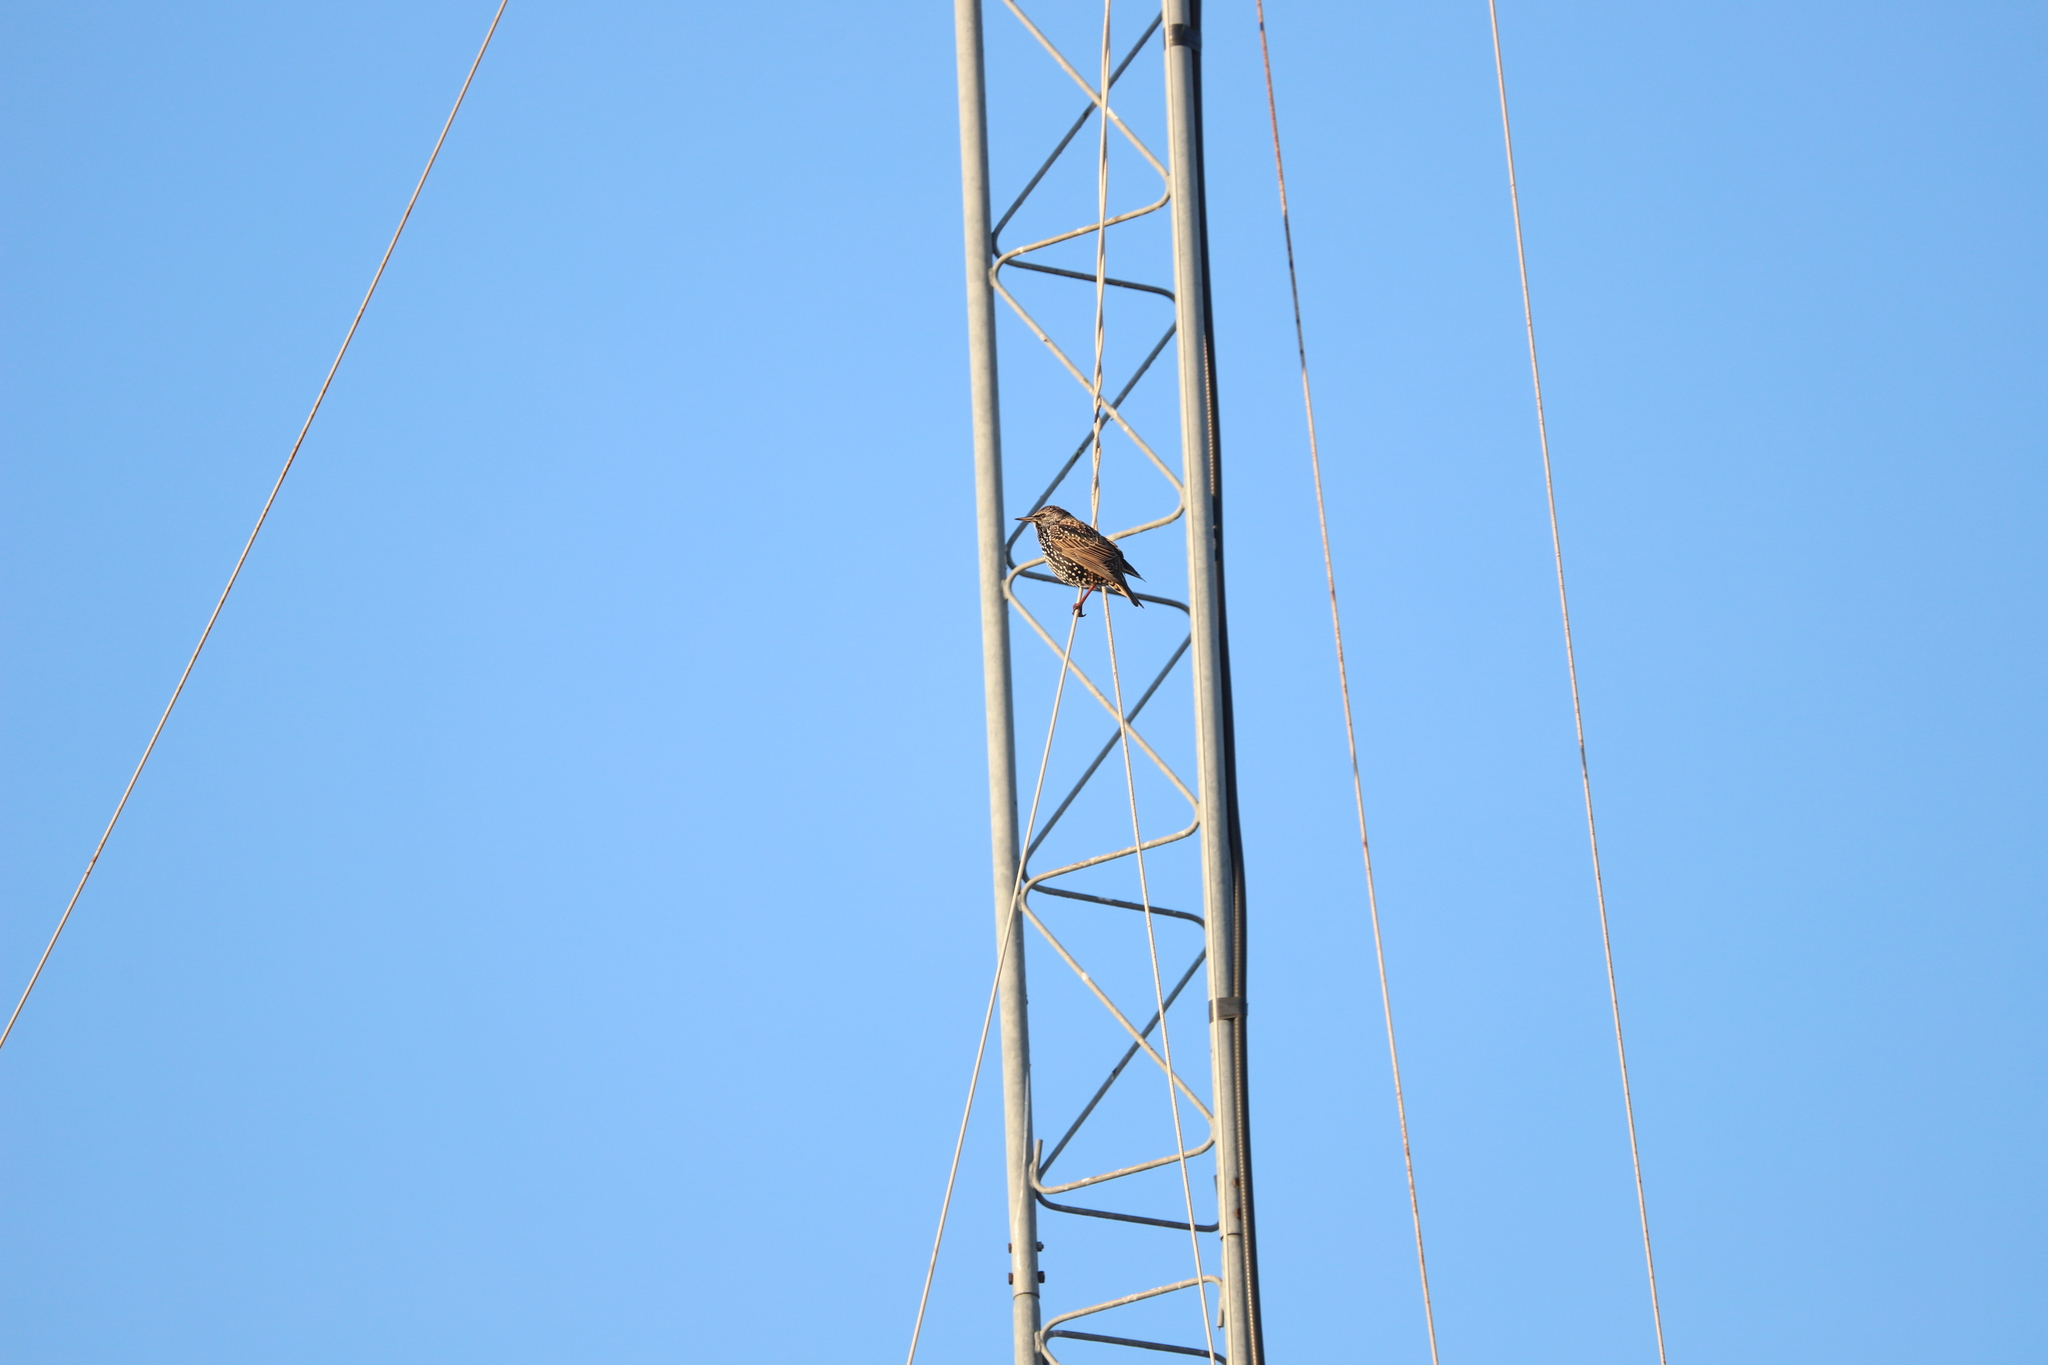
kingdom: Animalia
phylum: Chordata
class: Aves
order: Passeriformes
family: Sturnidae
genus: Sturnus
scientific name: Sturnus vulgaris
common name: Common starling
